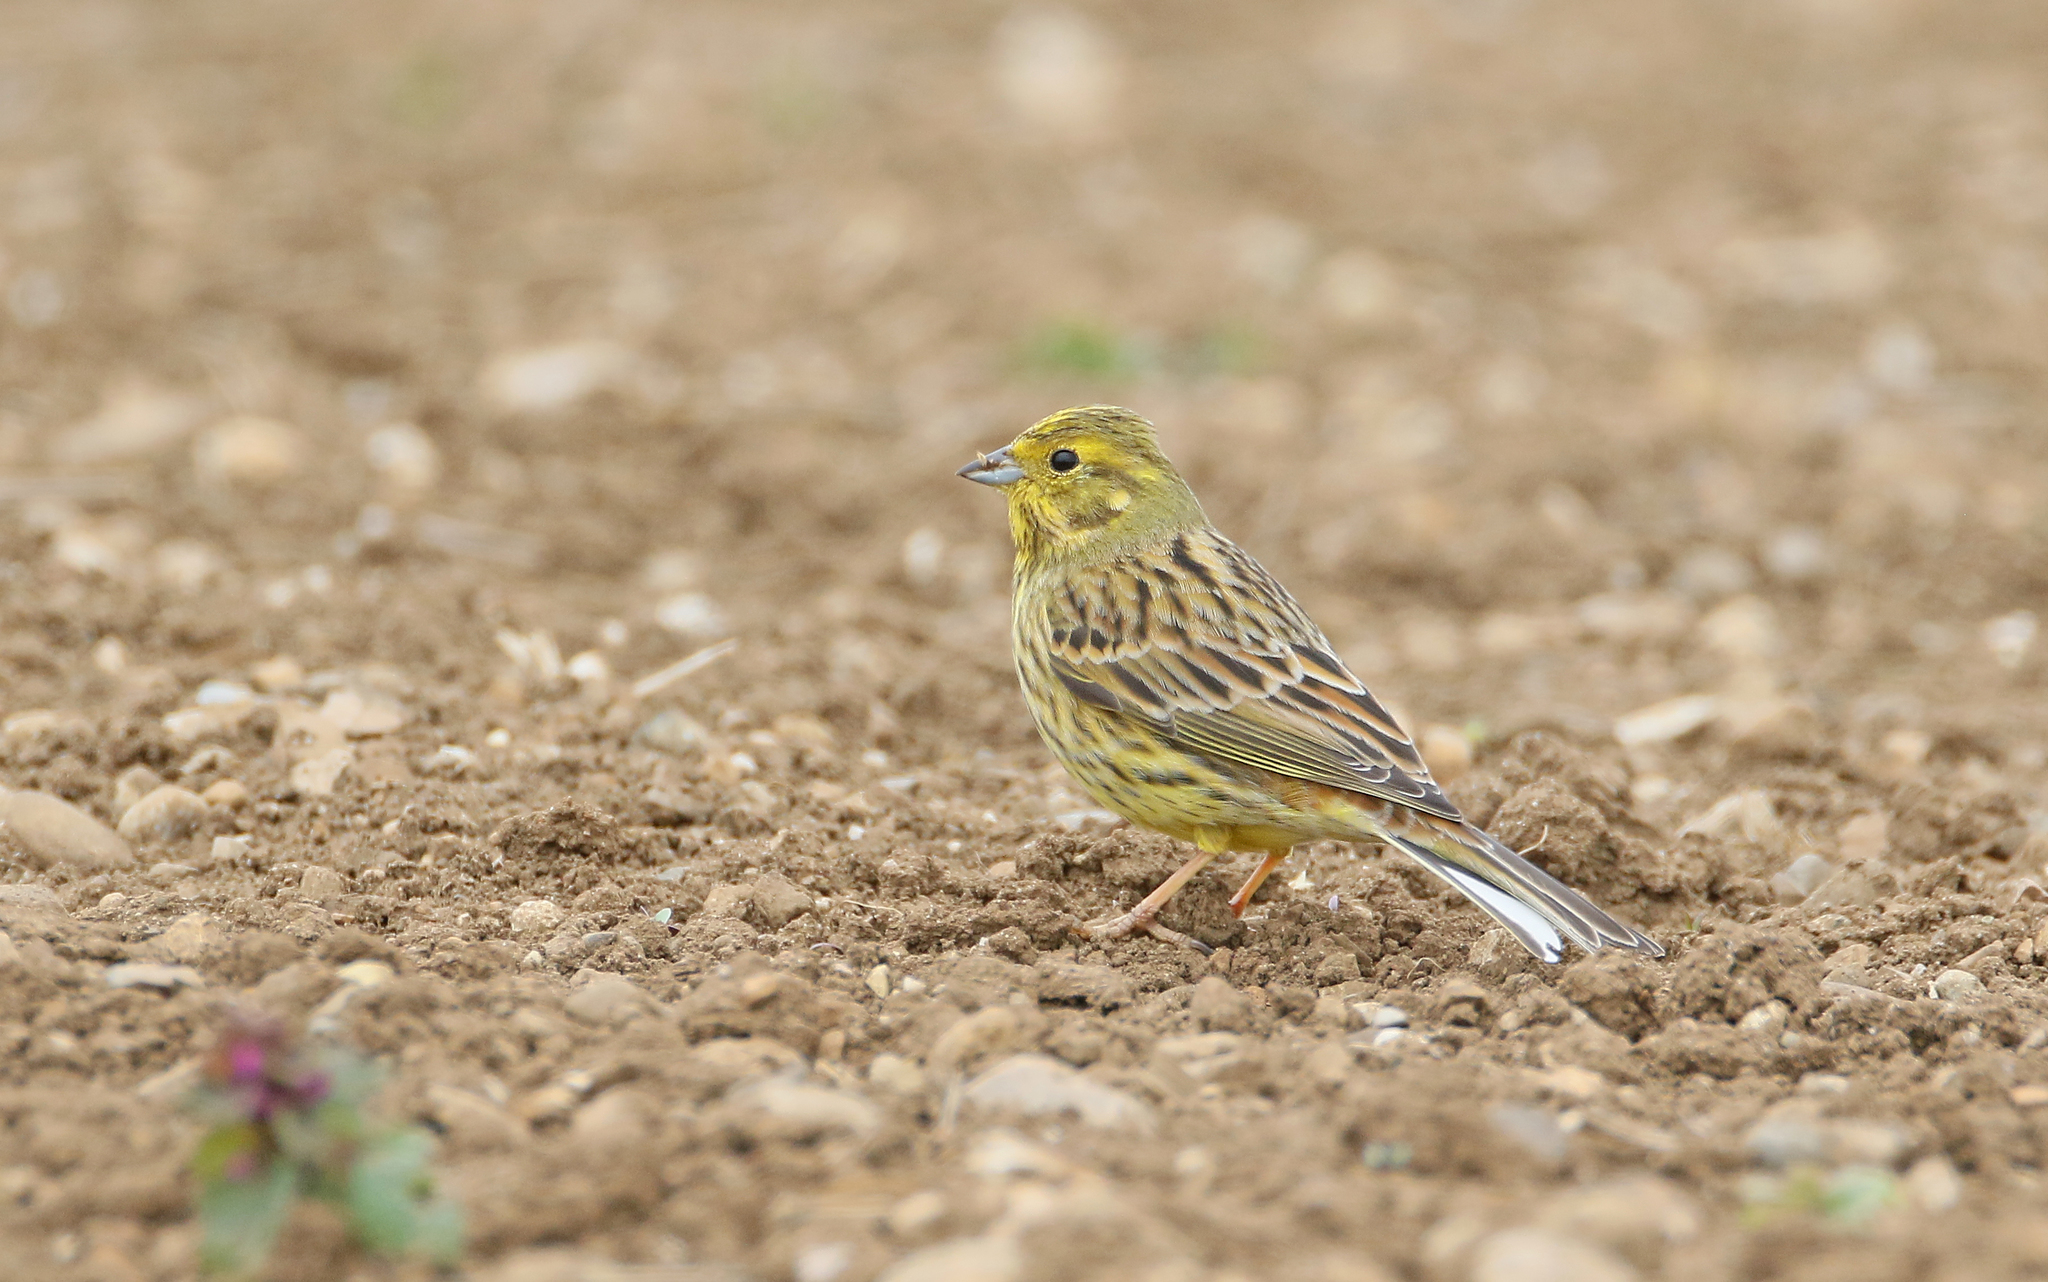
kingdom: Animalia
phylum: Chordata
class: Aves
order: Passeriformes
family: Emberizidae
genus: Emberiza
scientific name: Emberiza citrinella
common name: Yellowhammer
